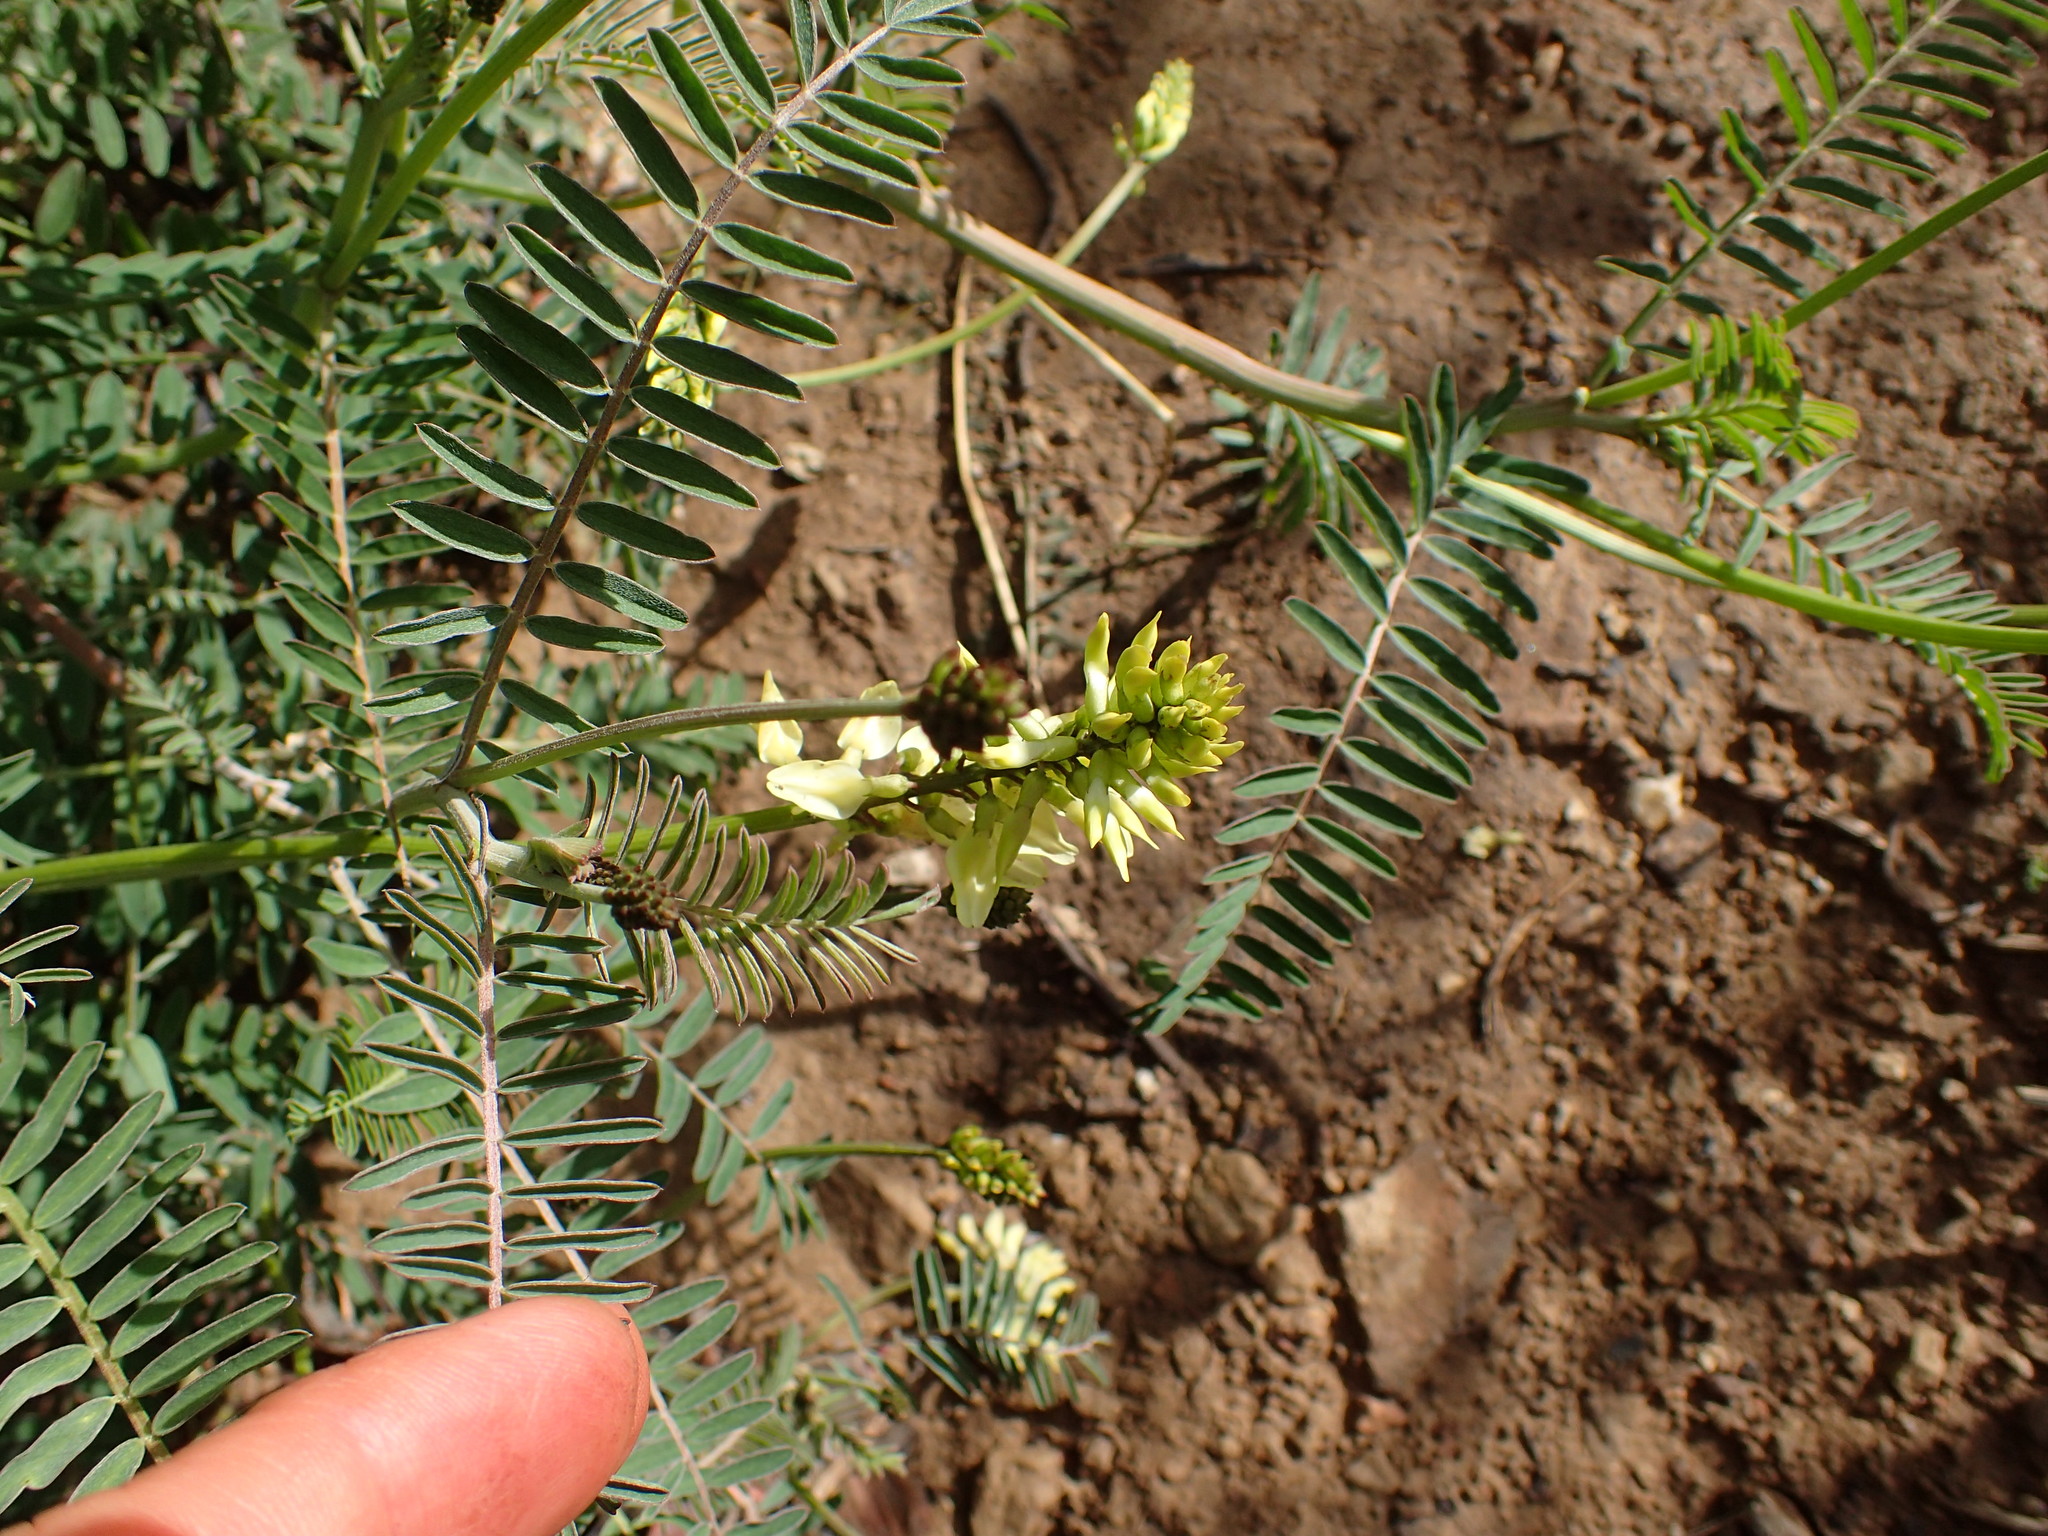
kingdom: Plantae
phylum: Tracheophyta
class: Magnoliopsida
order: Fabales
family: Fabaceae
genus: Astragalus
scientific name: Astragalus trichopodus
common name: Santa barbara milk-vetch
